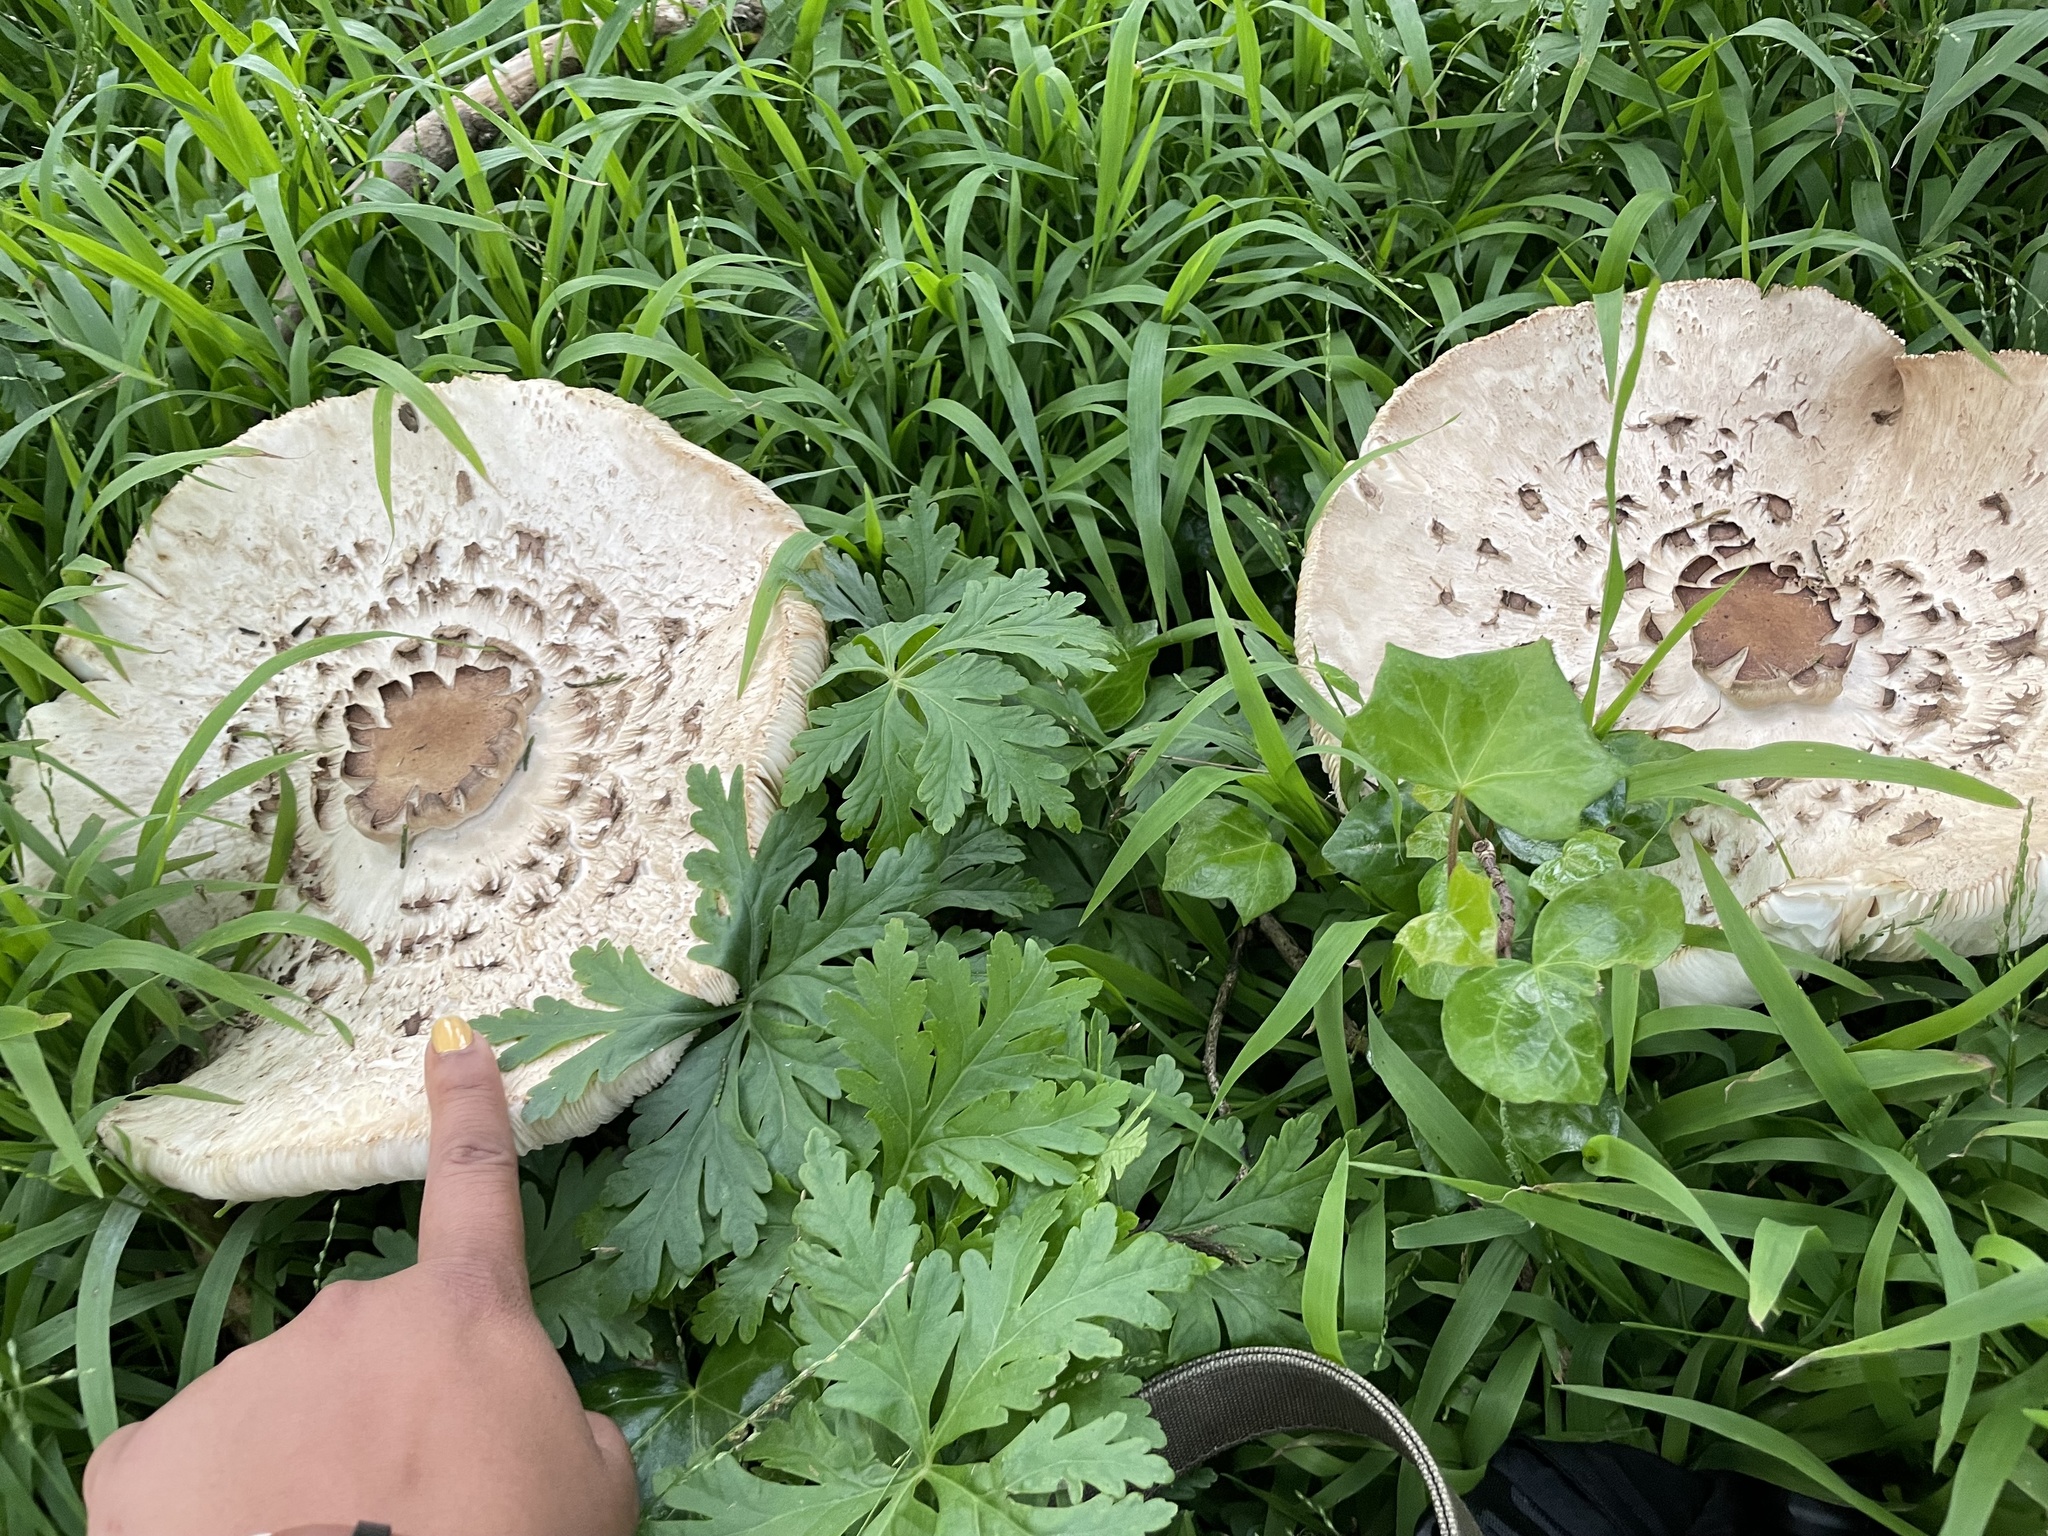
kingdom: Fungi
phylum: Basidiomycota
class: Agaricomycetes
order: Agaricales
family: Agaricaceae
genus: Chlorophyllum
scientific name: Chlorophyllum rhacodes
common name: Shaggy parasol
